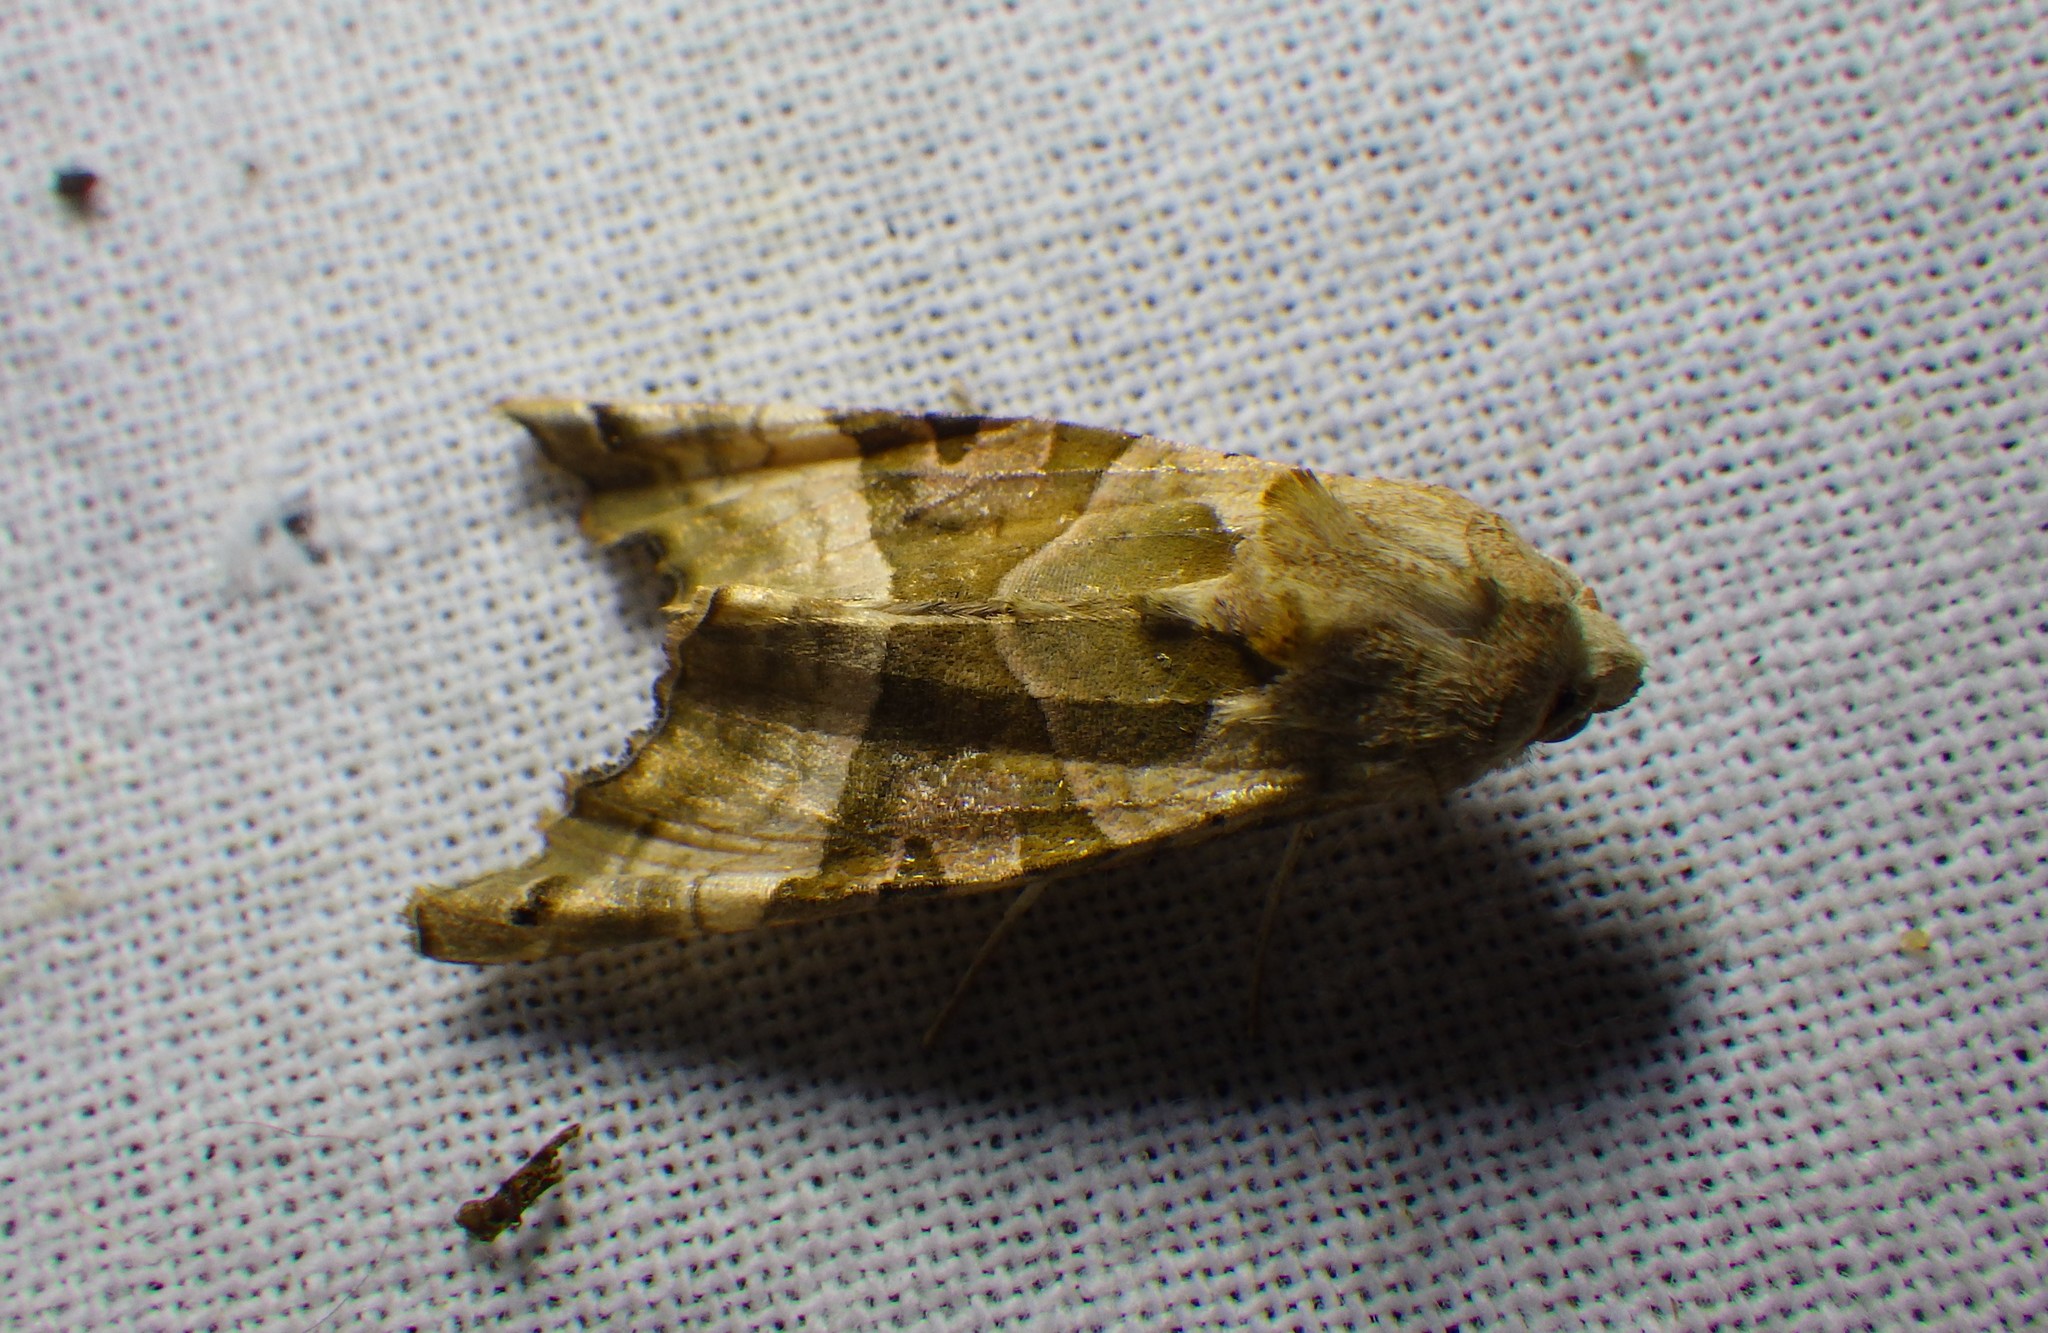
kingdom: Animalia
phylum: Arthropoda
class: Insecta
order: Lepidoptera
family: Noctuidae
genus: Phlogophora
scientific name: Phlogophora meticulosa
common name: Angle shades
